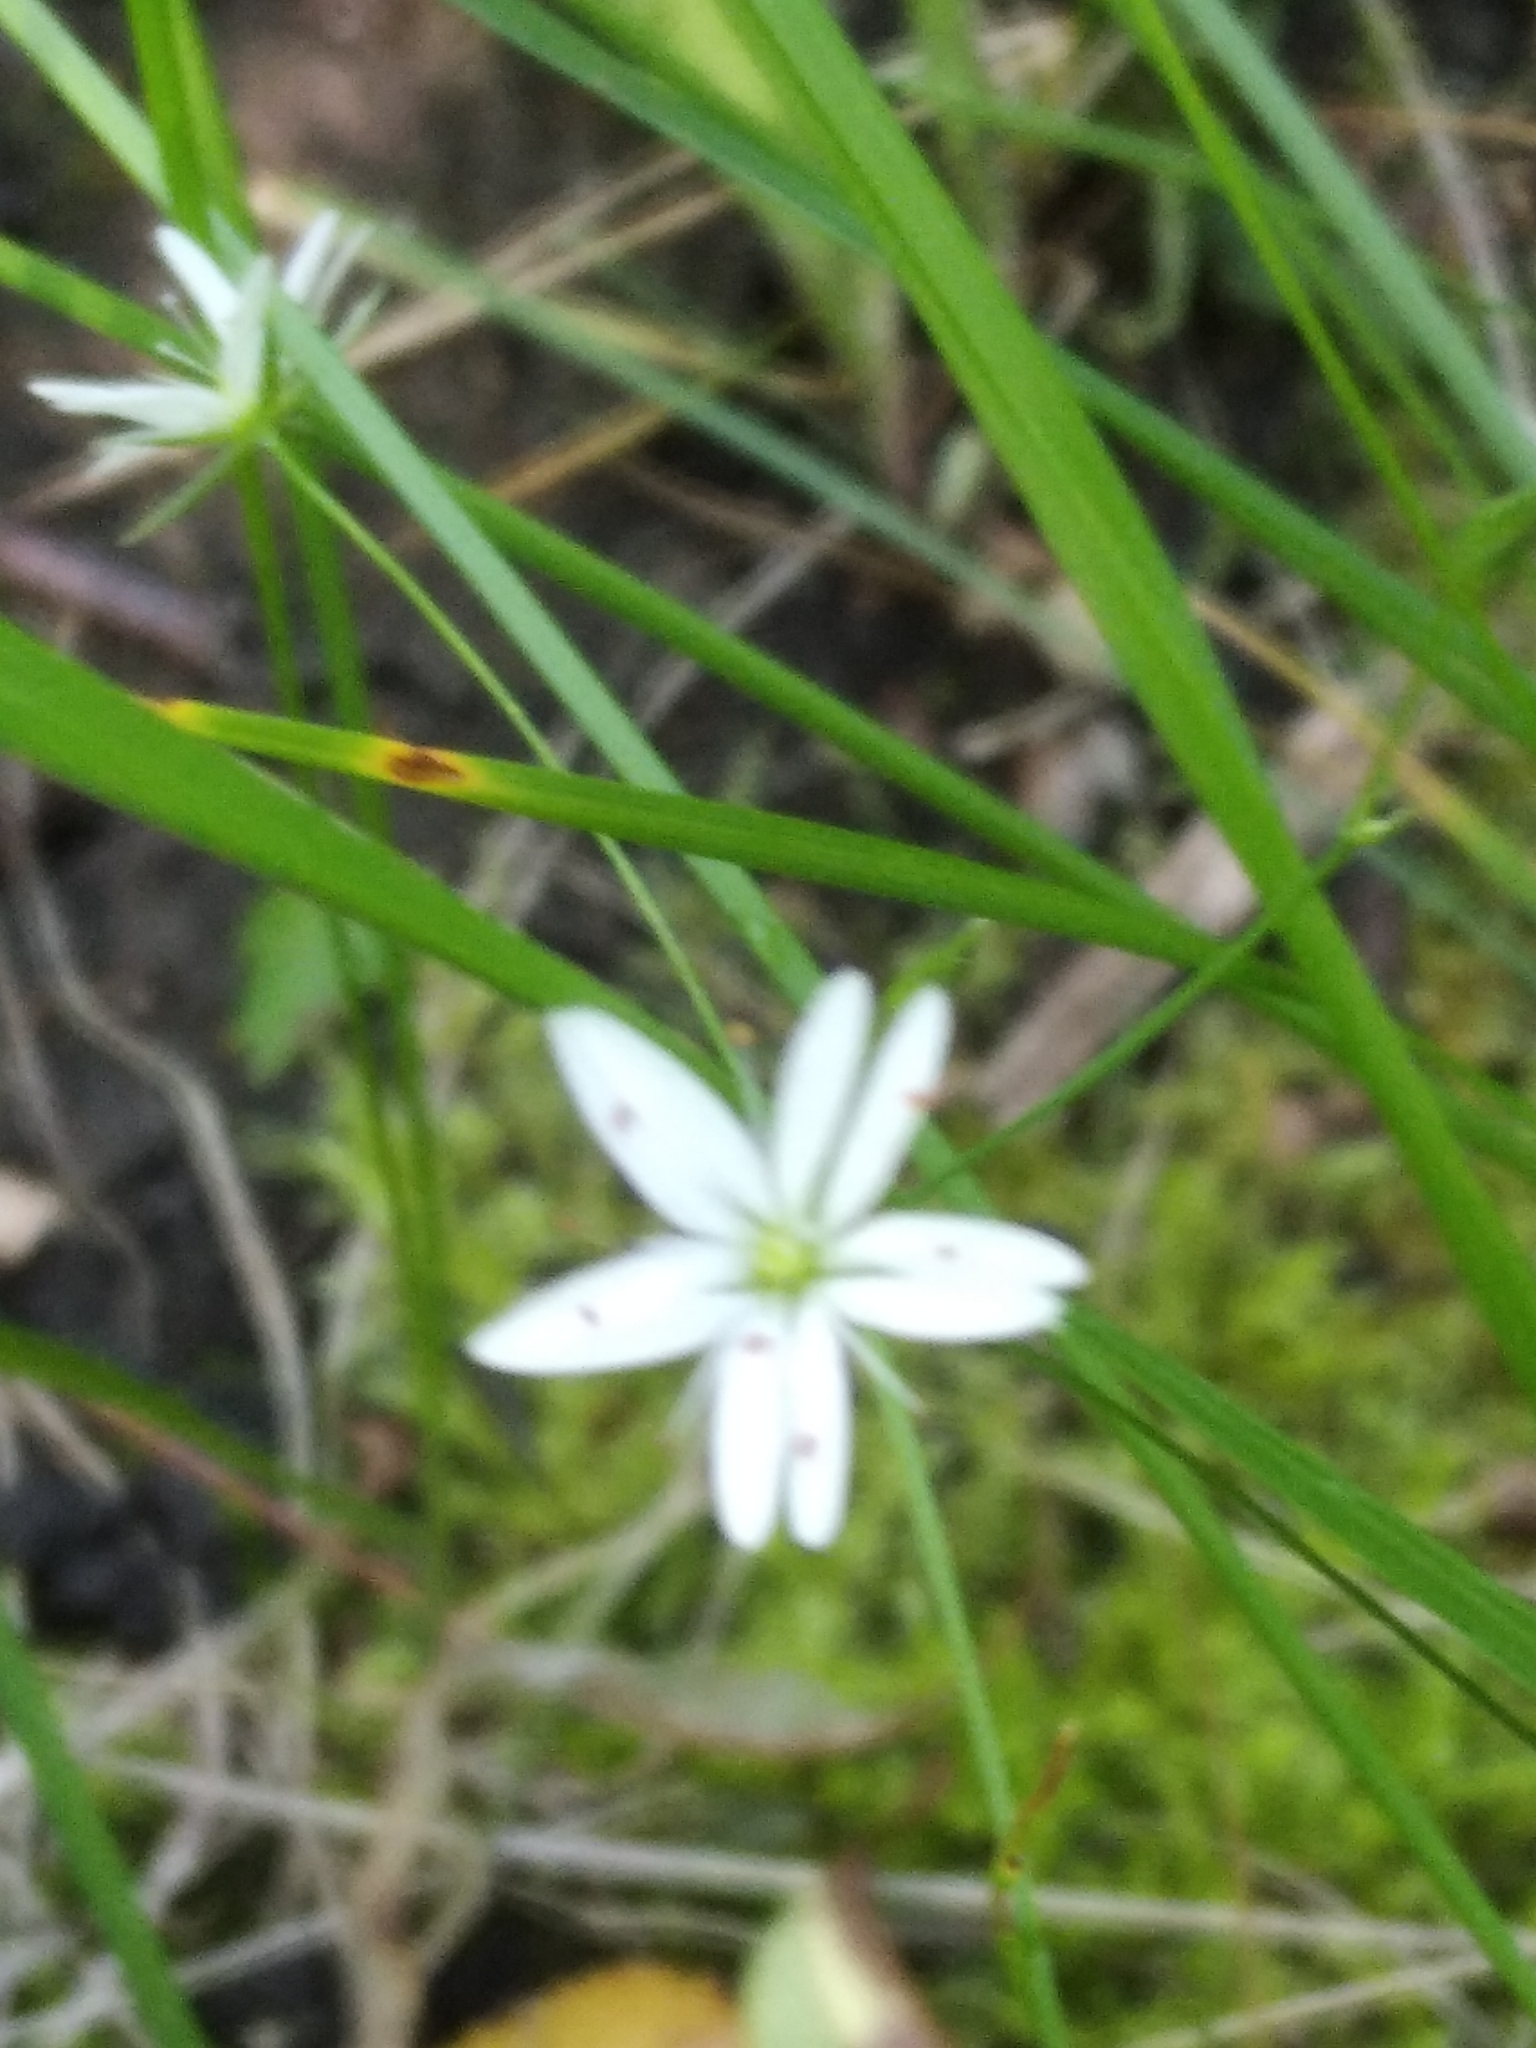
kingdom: Plantae
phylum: Tracheophyta
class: Magnoliopsida
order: Caryophyllales
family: Caryophyllaceae
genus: Stellaria
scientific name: Stellaria graminea
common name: Grass-like starwort
